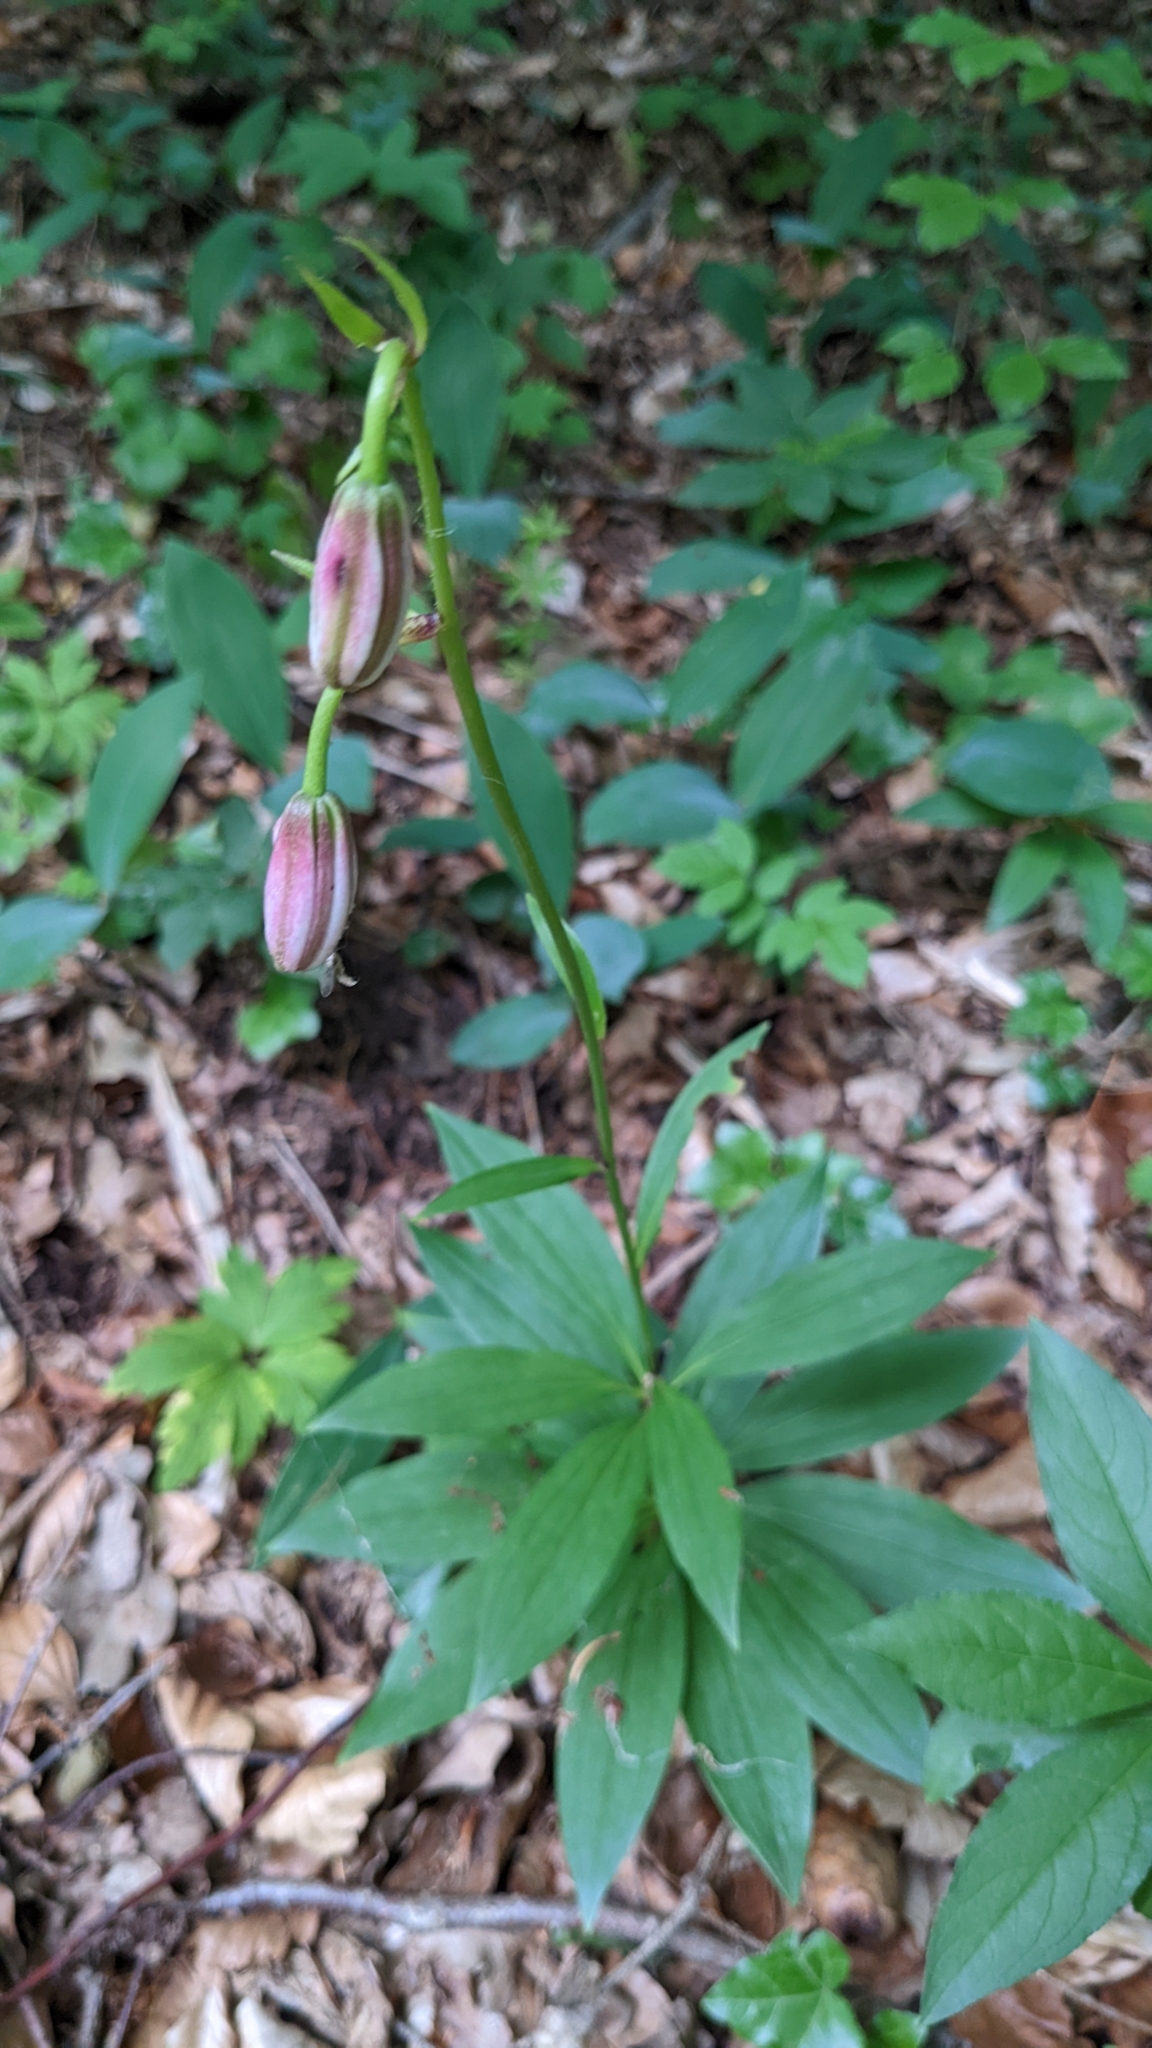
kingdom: Plantae
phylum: Tracheophyta
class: Liliopsida
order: Liliales
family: Liliaceae
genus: Lilium
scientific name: Lilium martagon
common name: Martagon lily
